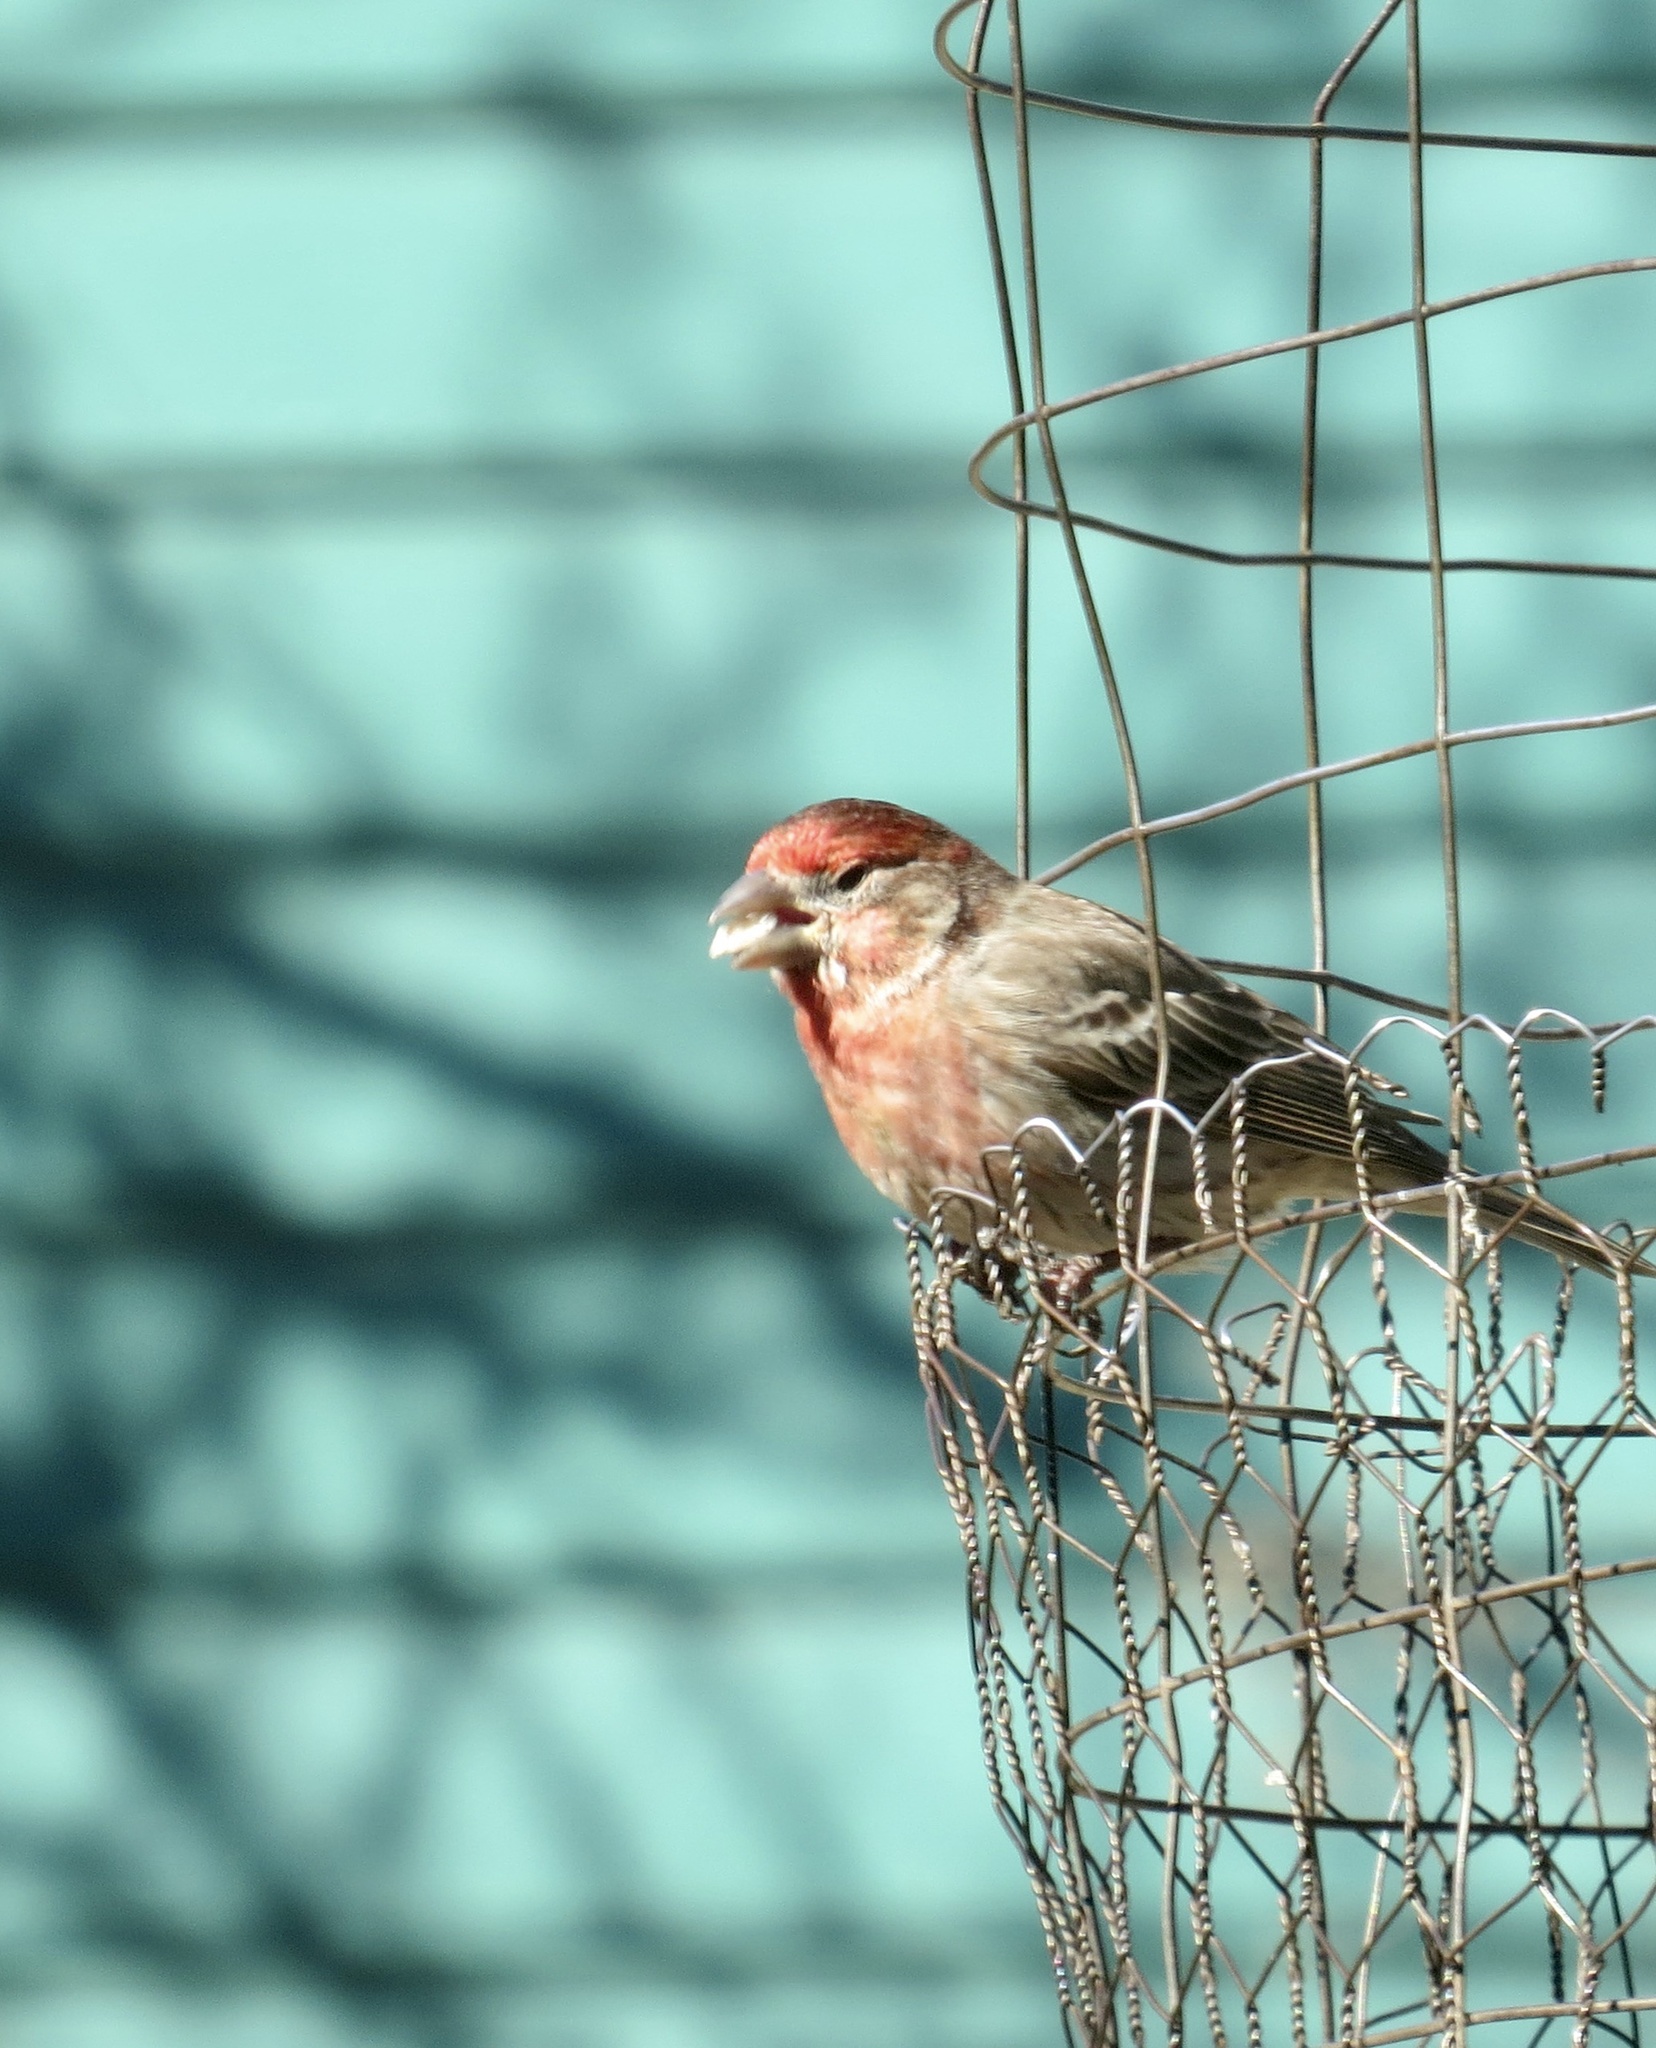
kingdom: Animalia
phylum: Chordata
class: Aves
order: Passeriformes
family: Fringillidae
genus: Haemorhous
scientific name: Haemorhous mexicanus
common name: House finch
